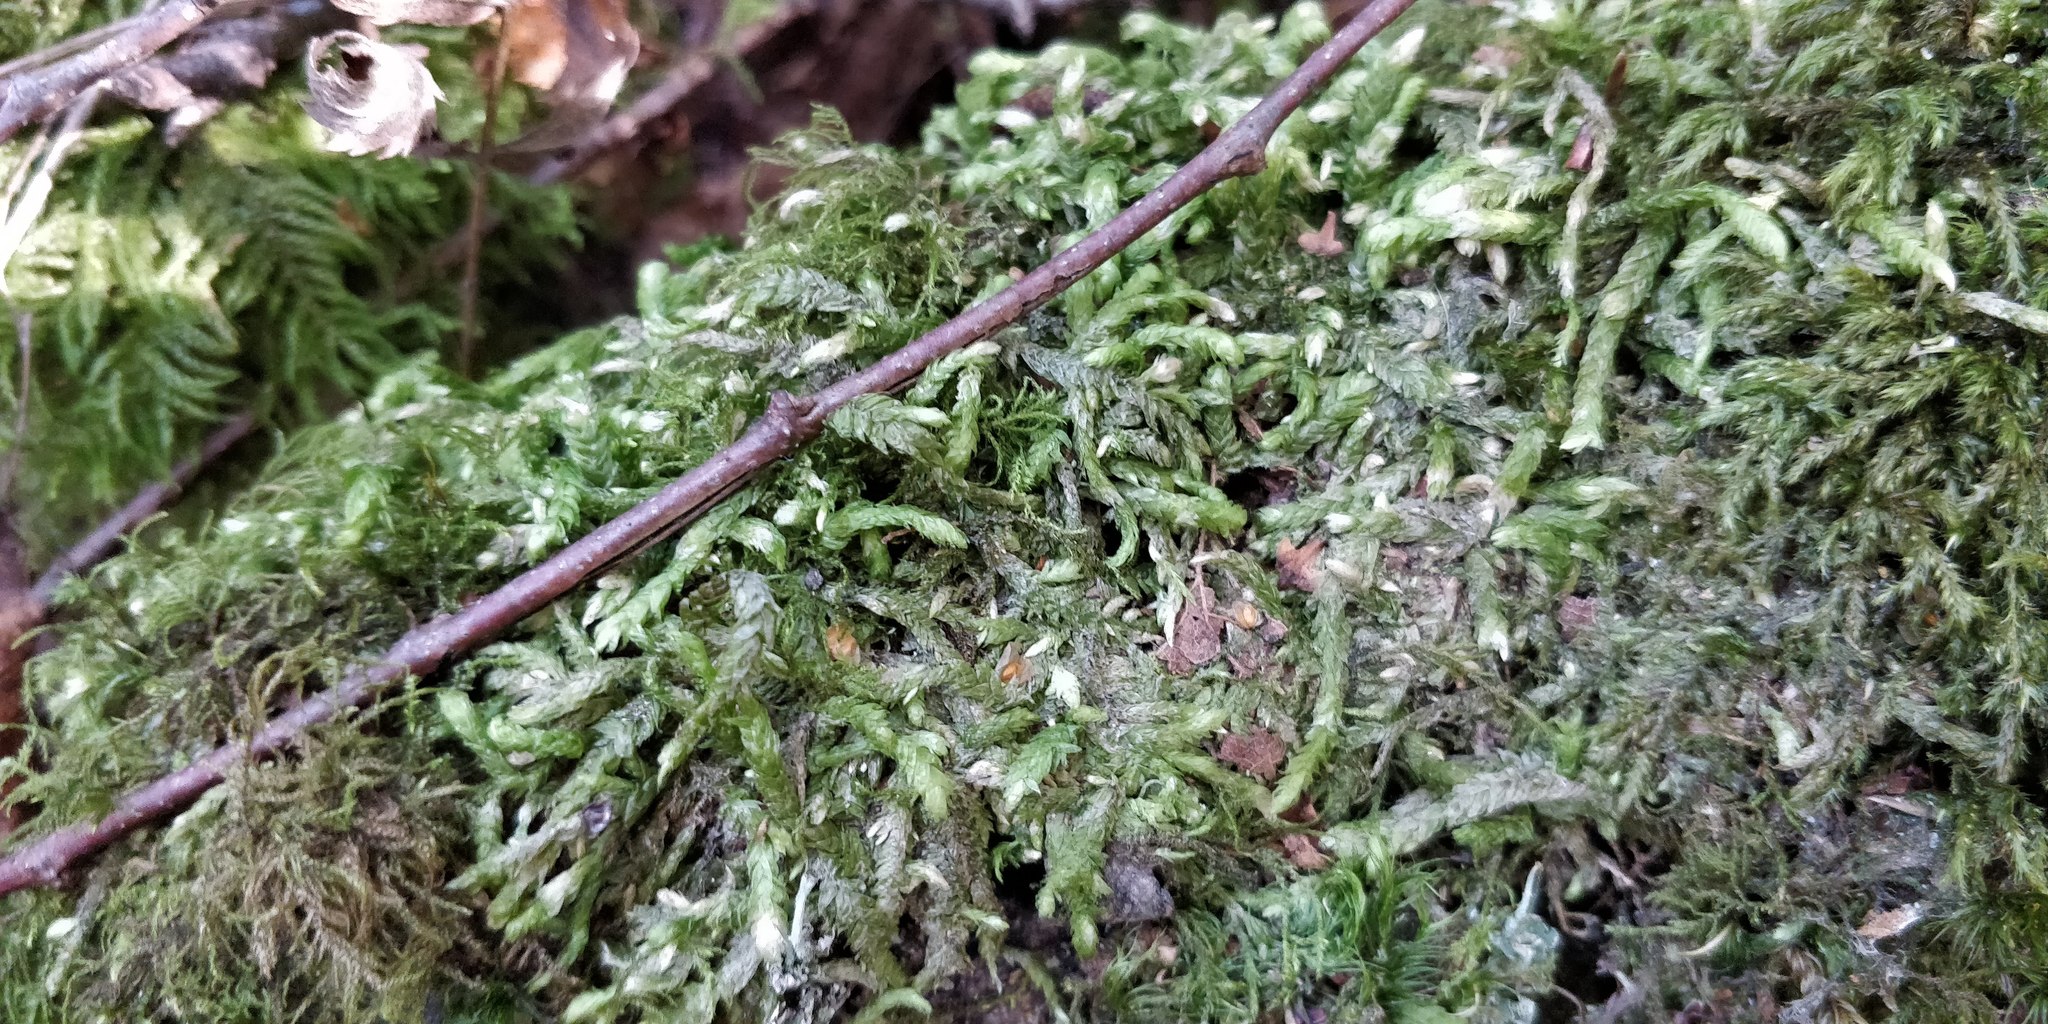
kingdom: Plantae
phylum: Bryophyta
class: Bryopsida
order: Hypnales
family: Plagiotheciaceae
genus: Plagiothecium
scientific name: Plagiothecium undulatum
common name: Waved silk-moss
